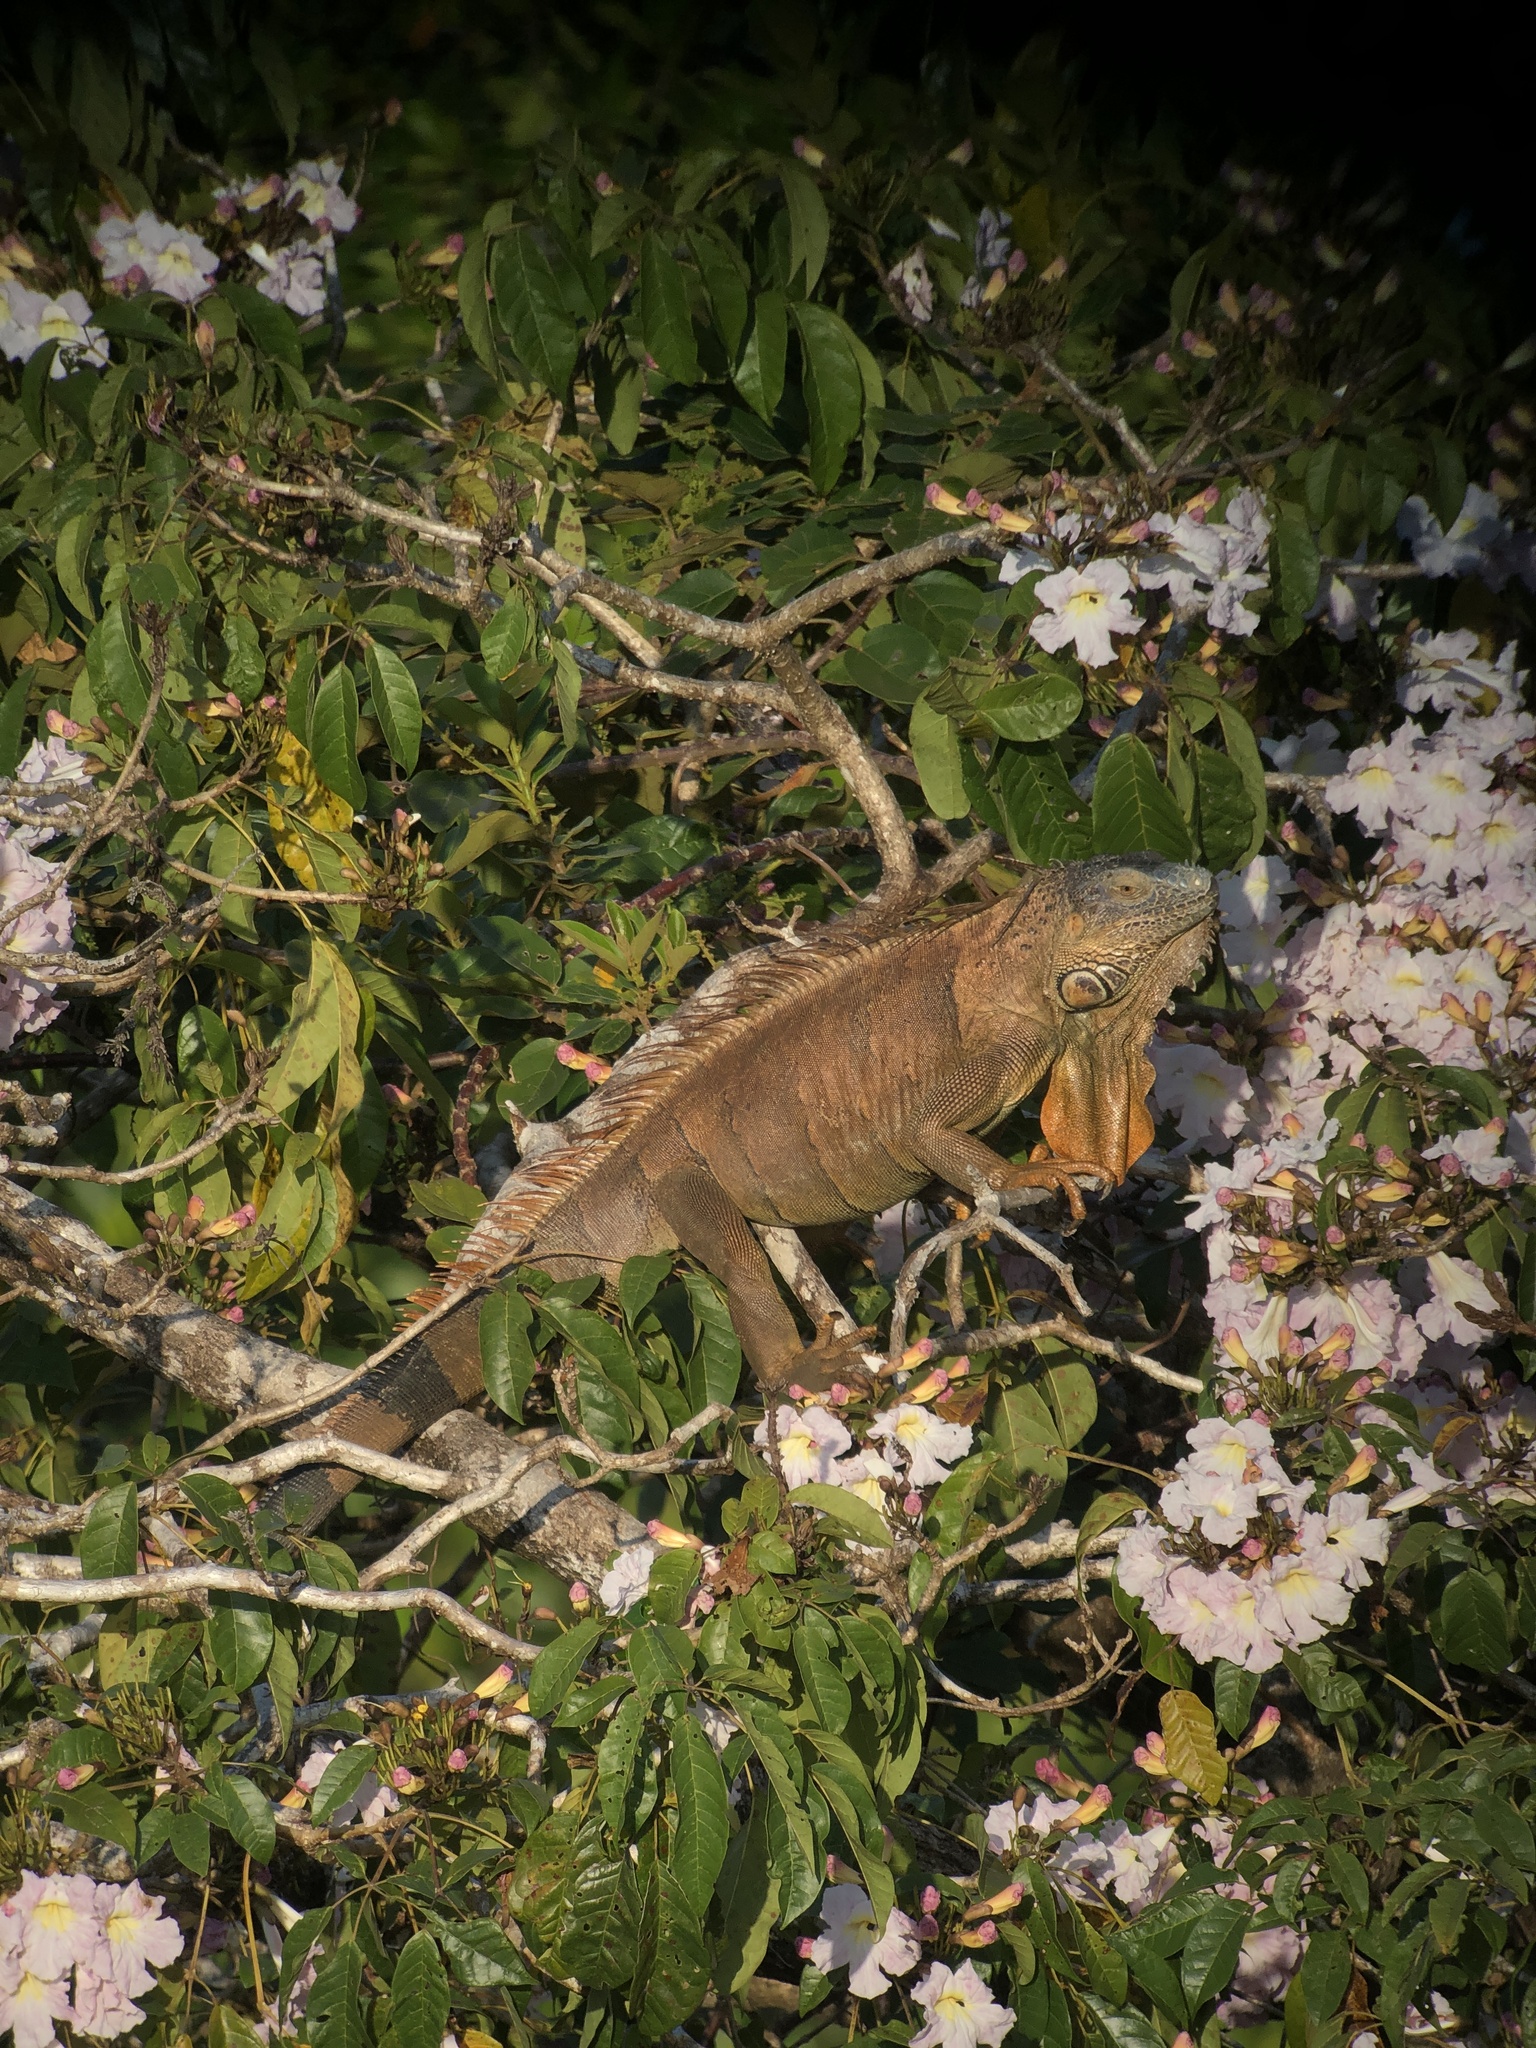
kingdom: Animalia
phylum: Chordata
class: Squamata
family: Iguanidae
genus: Iguana
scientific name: Iguana iguana
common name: Green iguana
